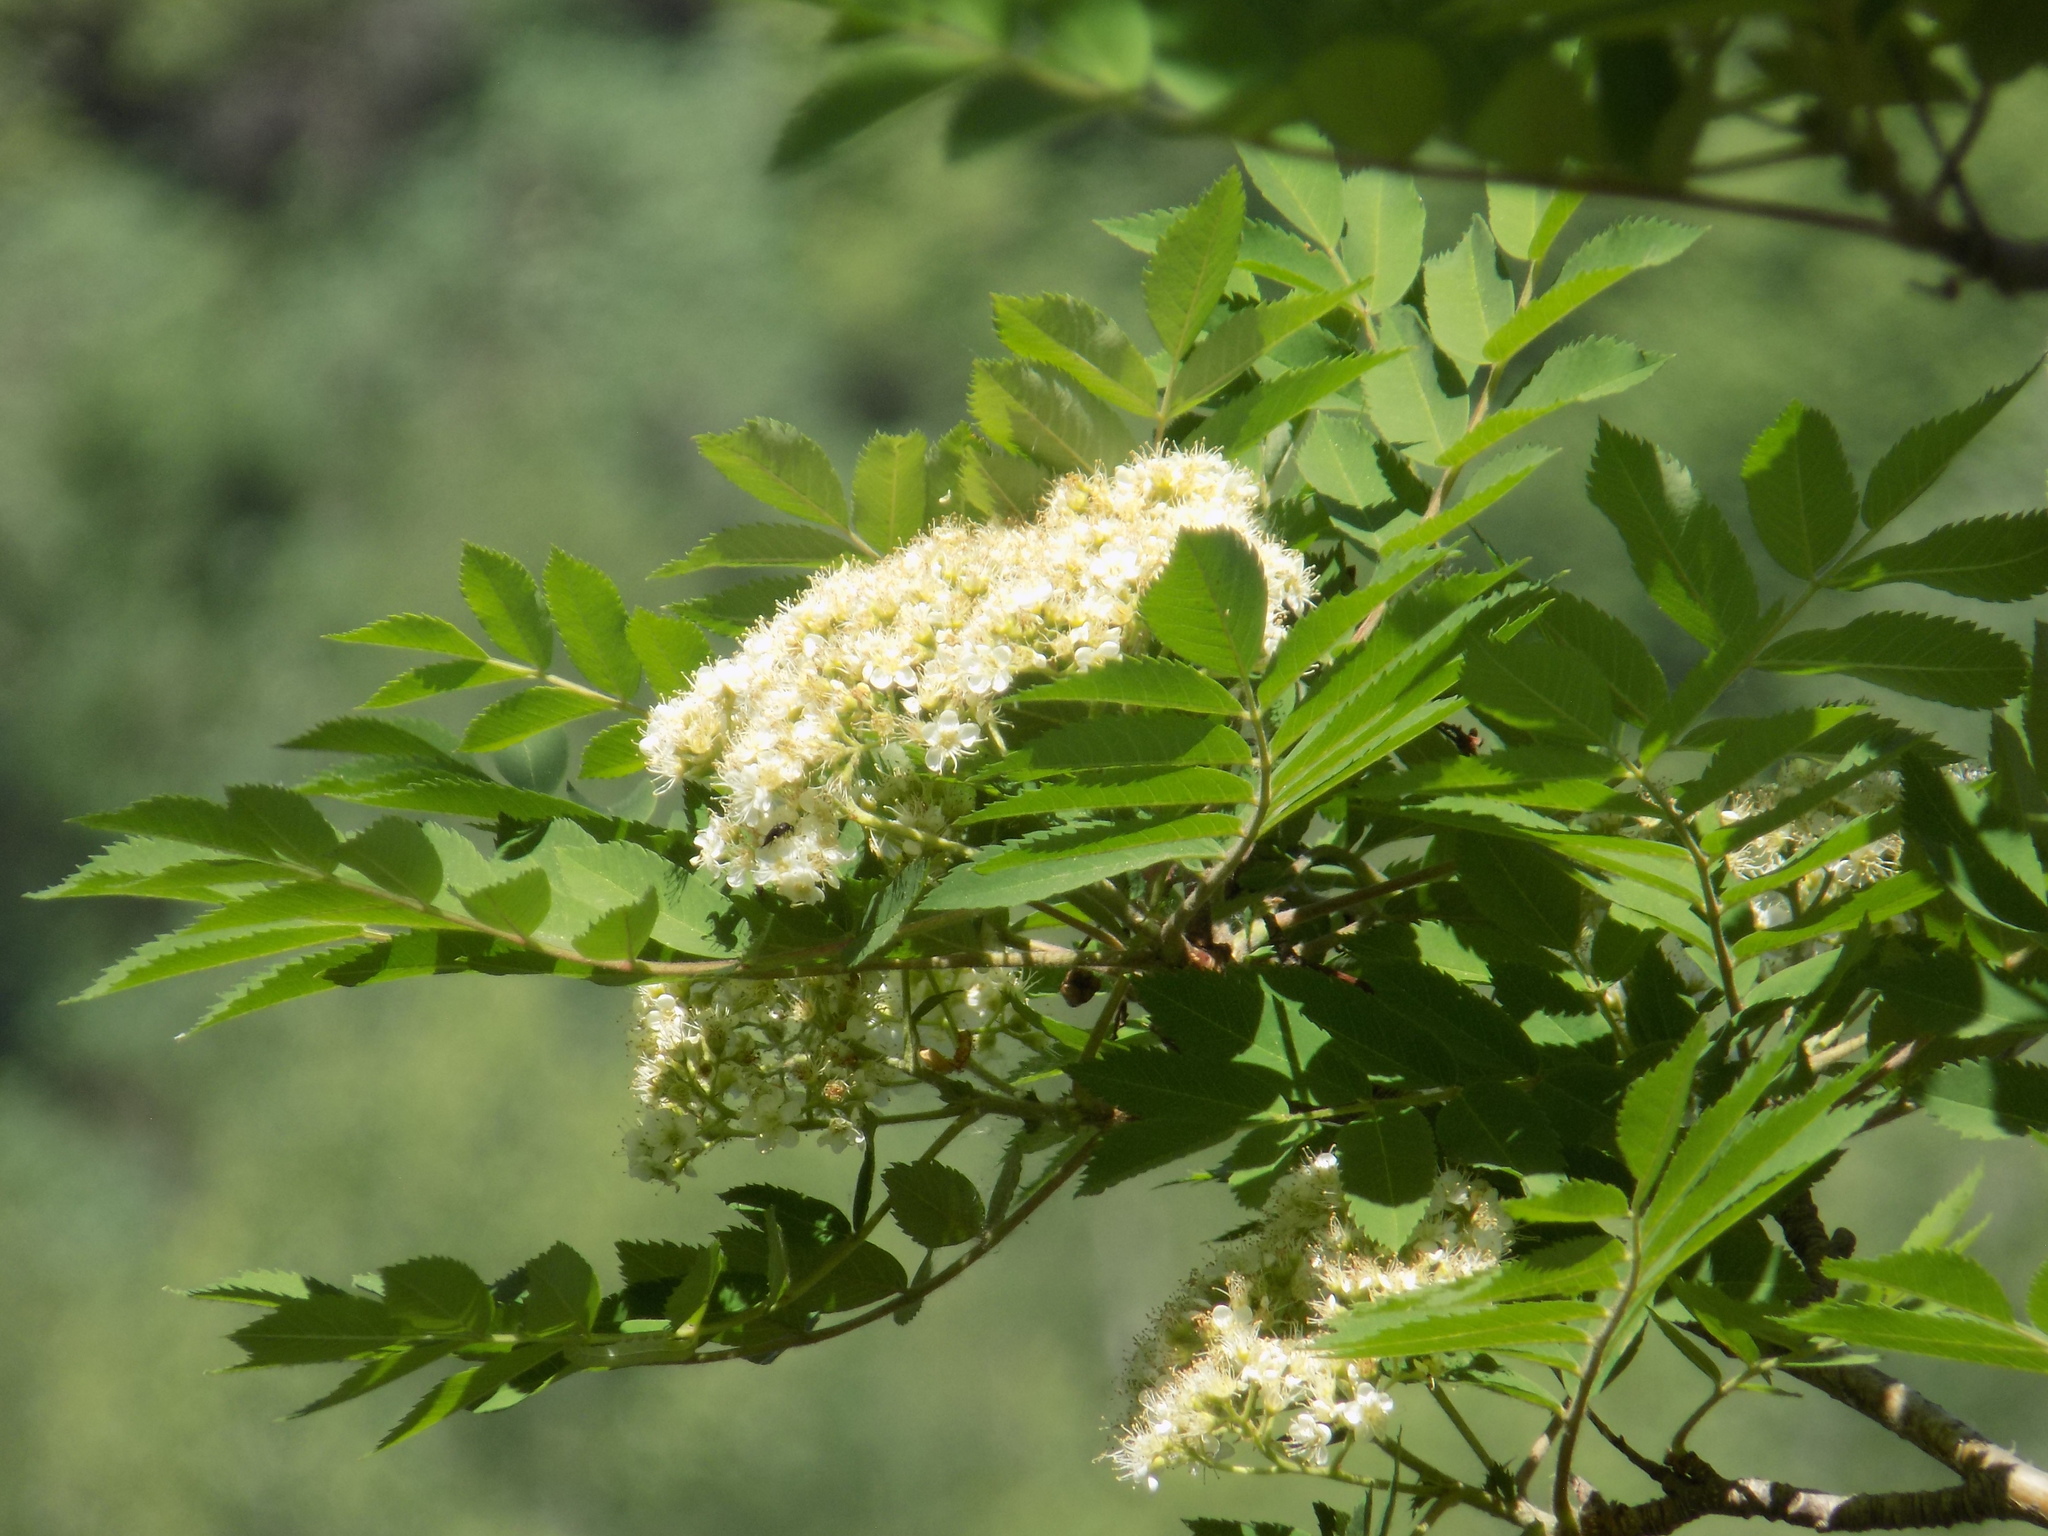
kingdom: Plantae
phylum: Tracheophyta
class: Magnoliopsida
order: Rosales
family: Rosaceae
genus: Sorbus
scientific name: Sorbus aucuparia
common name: Rowan
